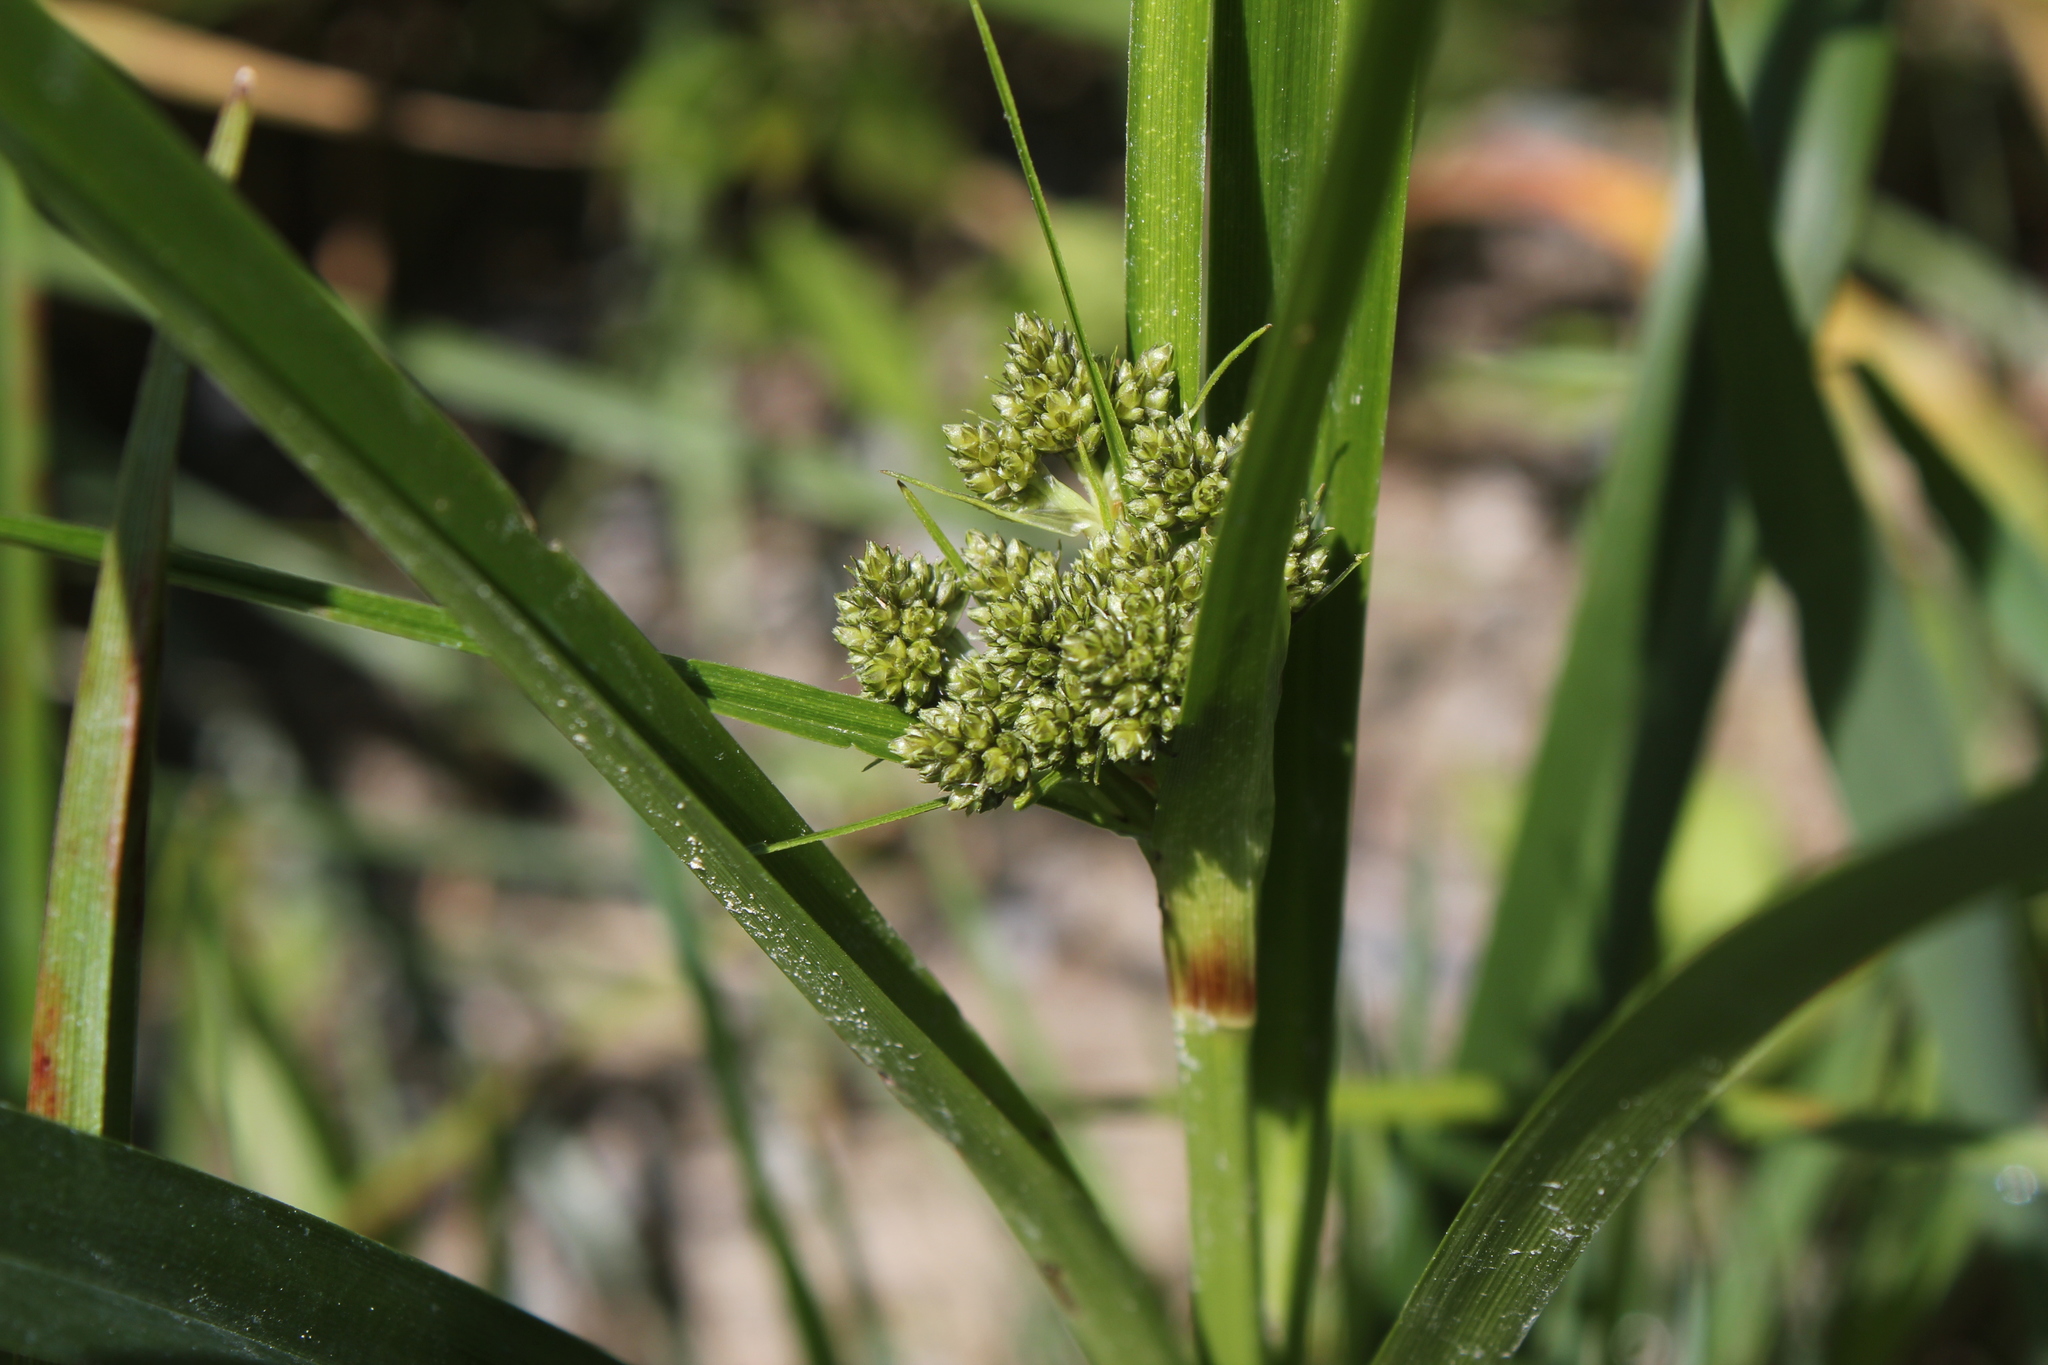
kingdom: Plantae
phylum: Tracheophyta
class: Liliopsida
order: Poales
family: Cyperaceae
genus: Scirpus
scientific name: Scirpus microcarpus
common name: Panicled bulrush
